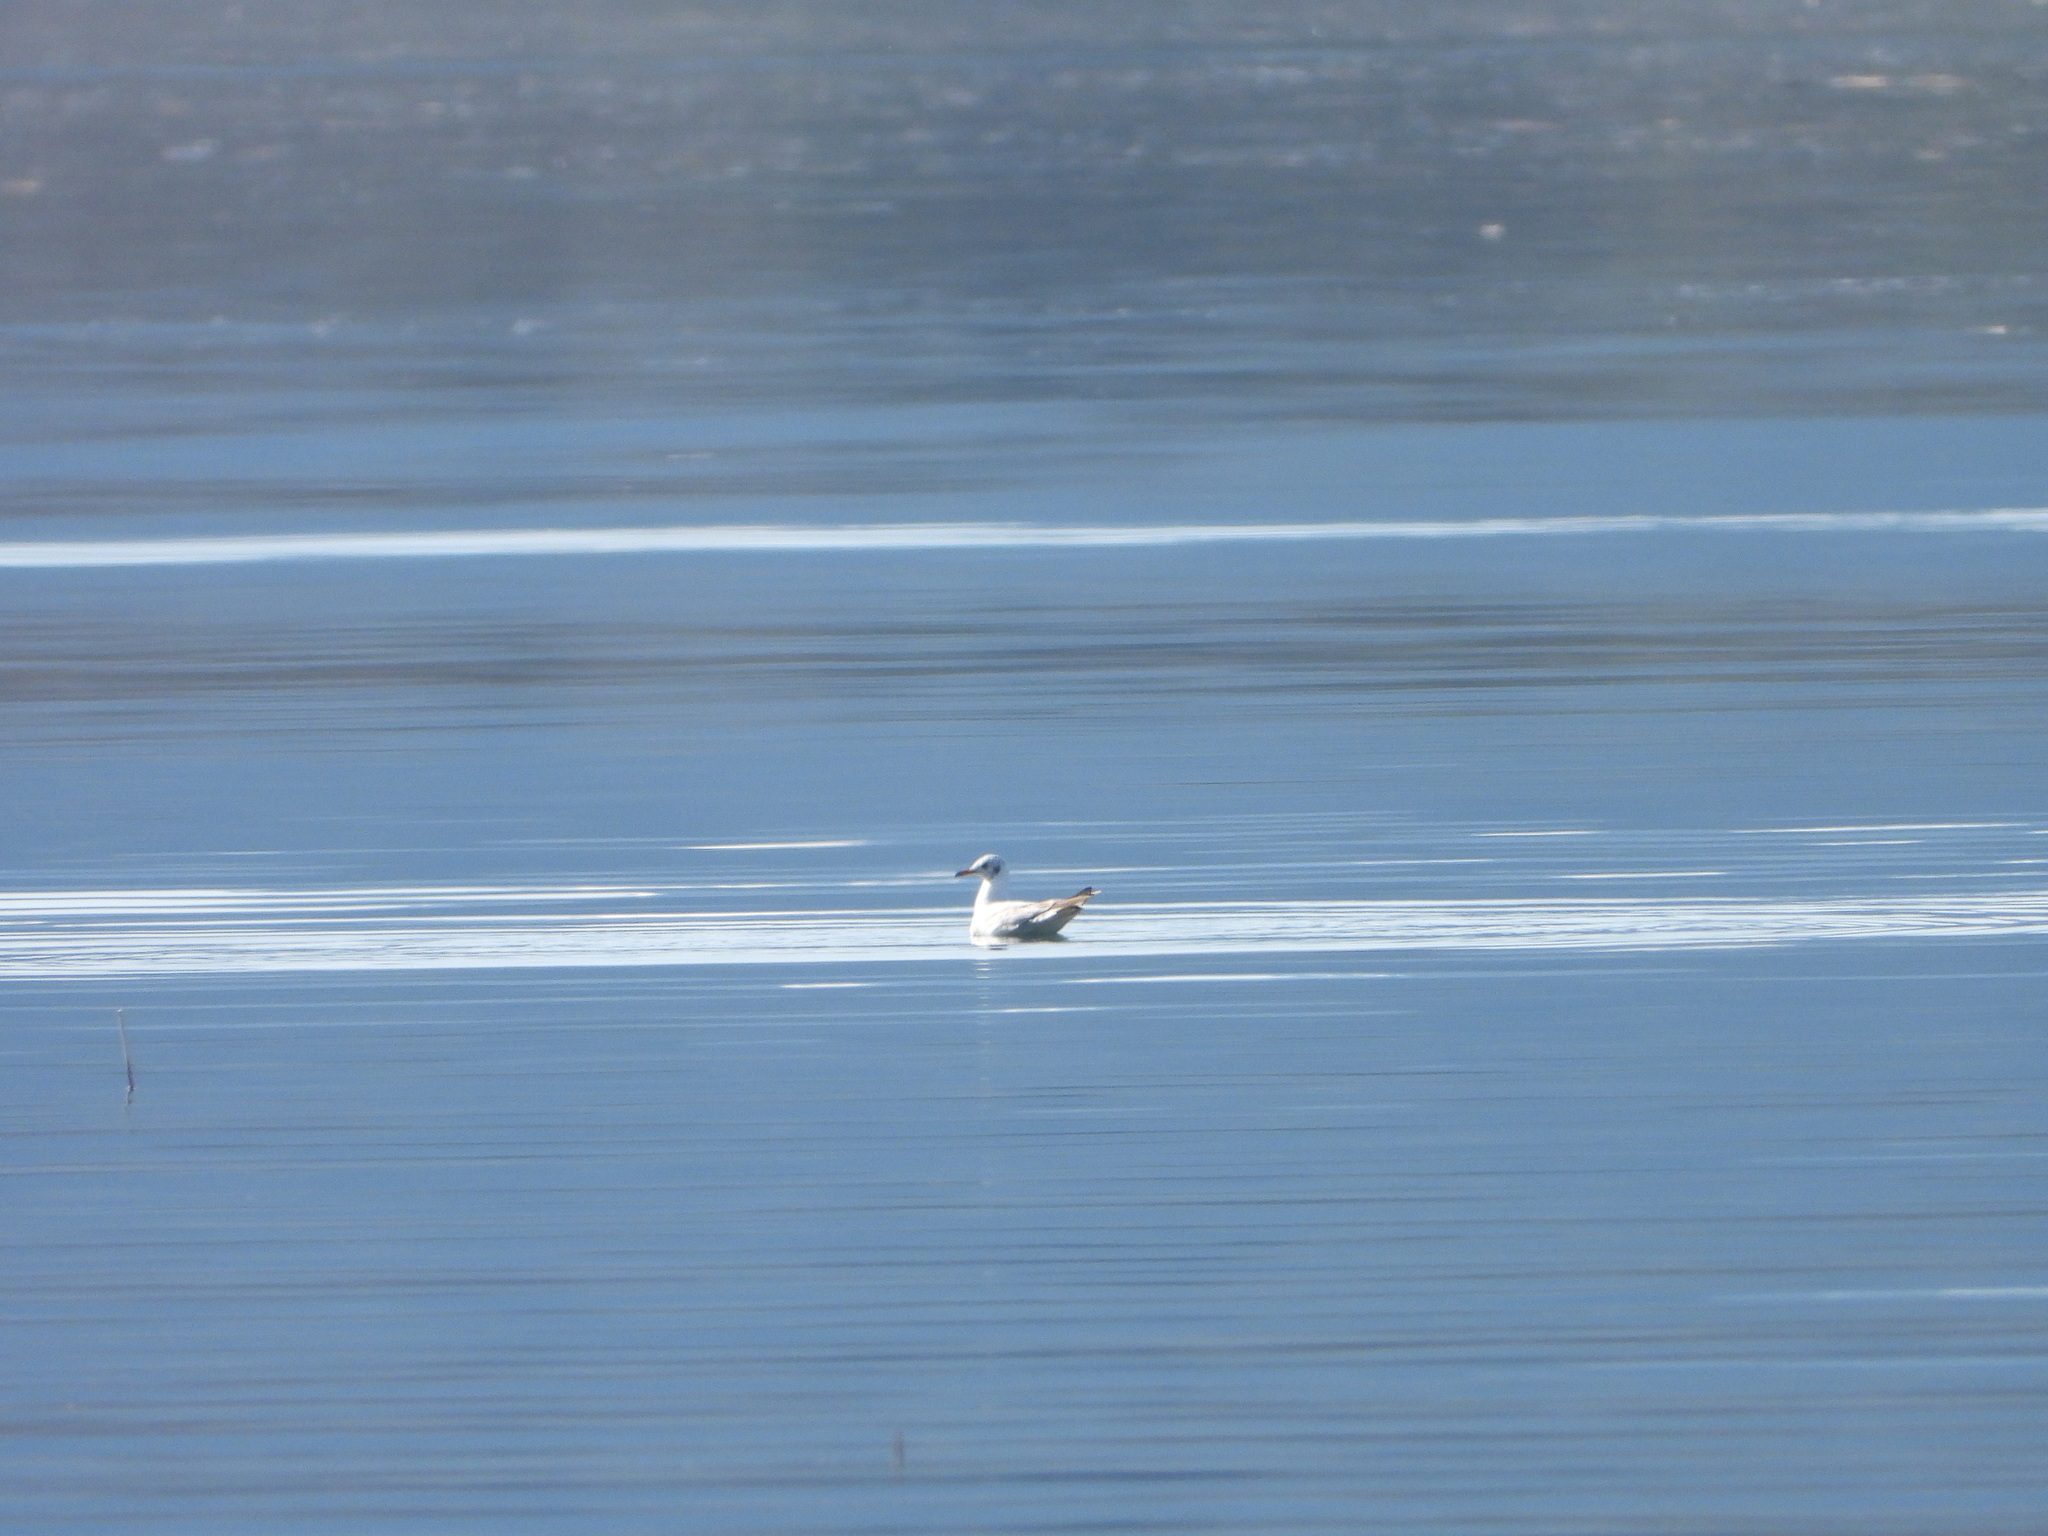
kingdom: Animalia
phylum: Chordata
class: Aves
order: Charadriiformes
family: Laridae
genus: Chroicocephalus
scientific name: Chroicocephalus ridibundus
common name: Black-headed gull
